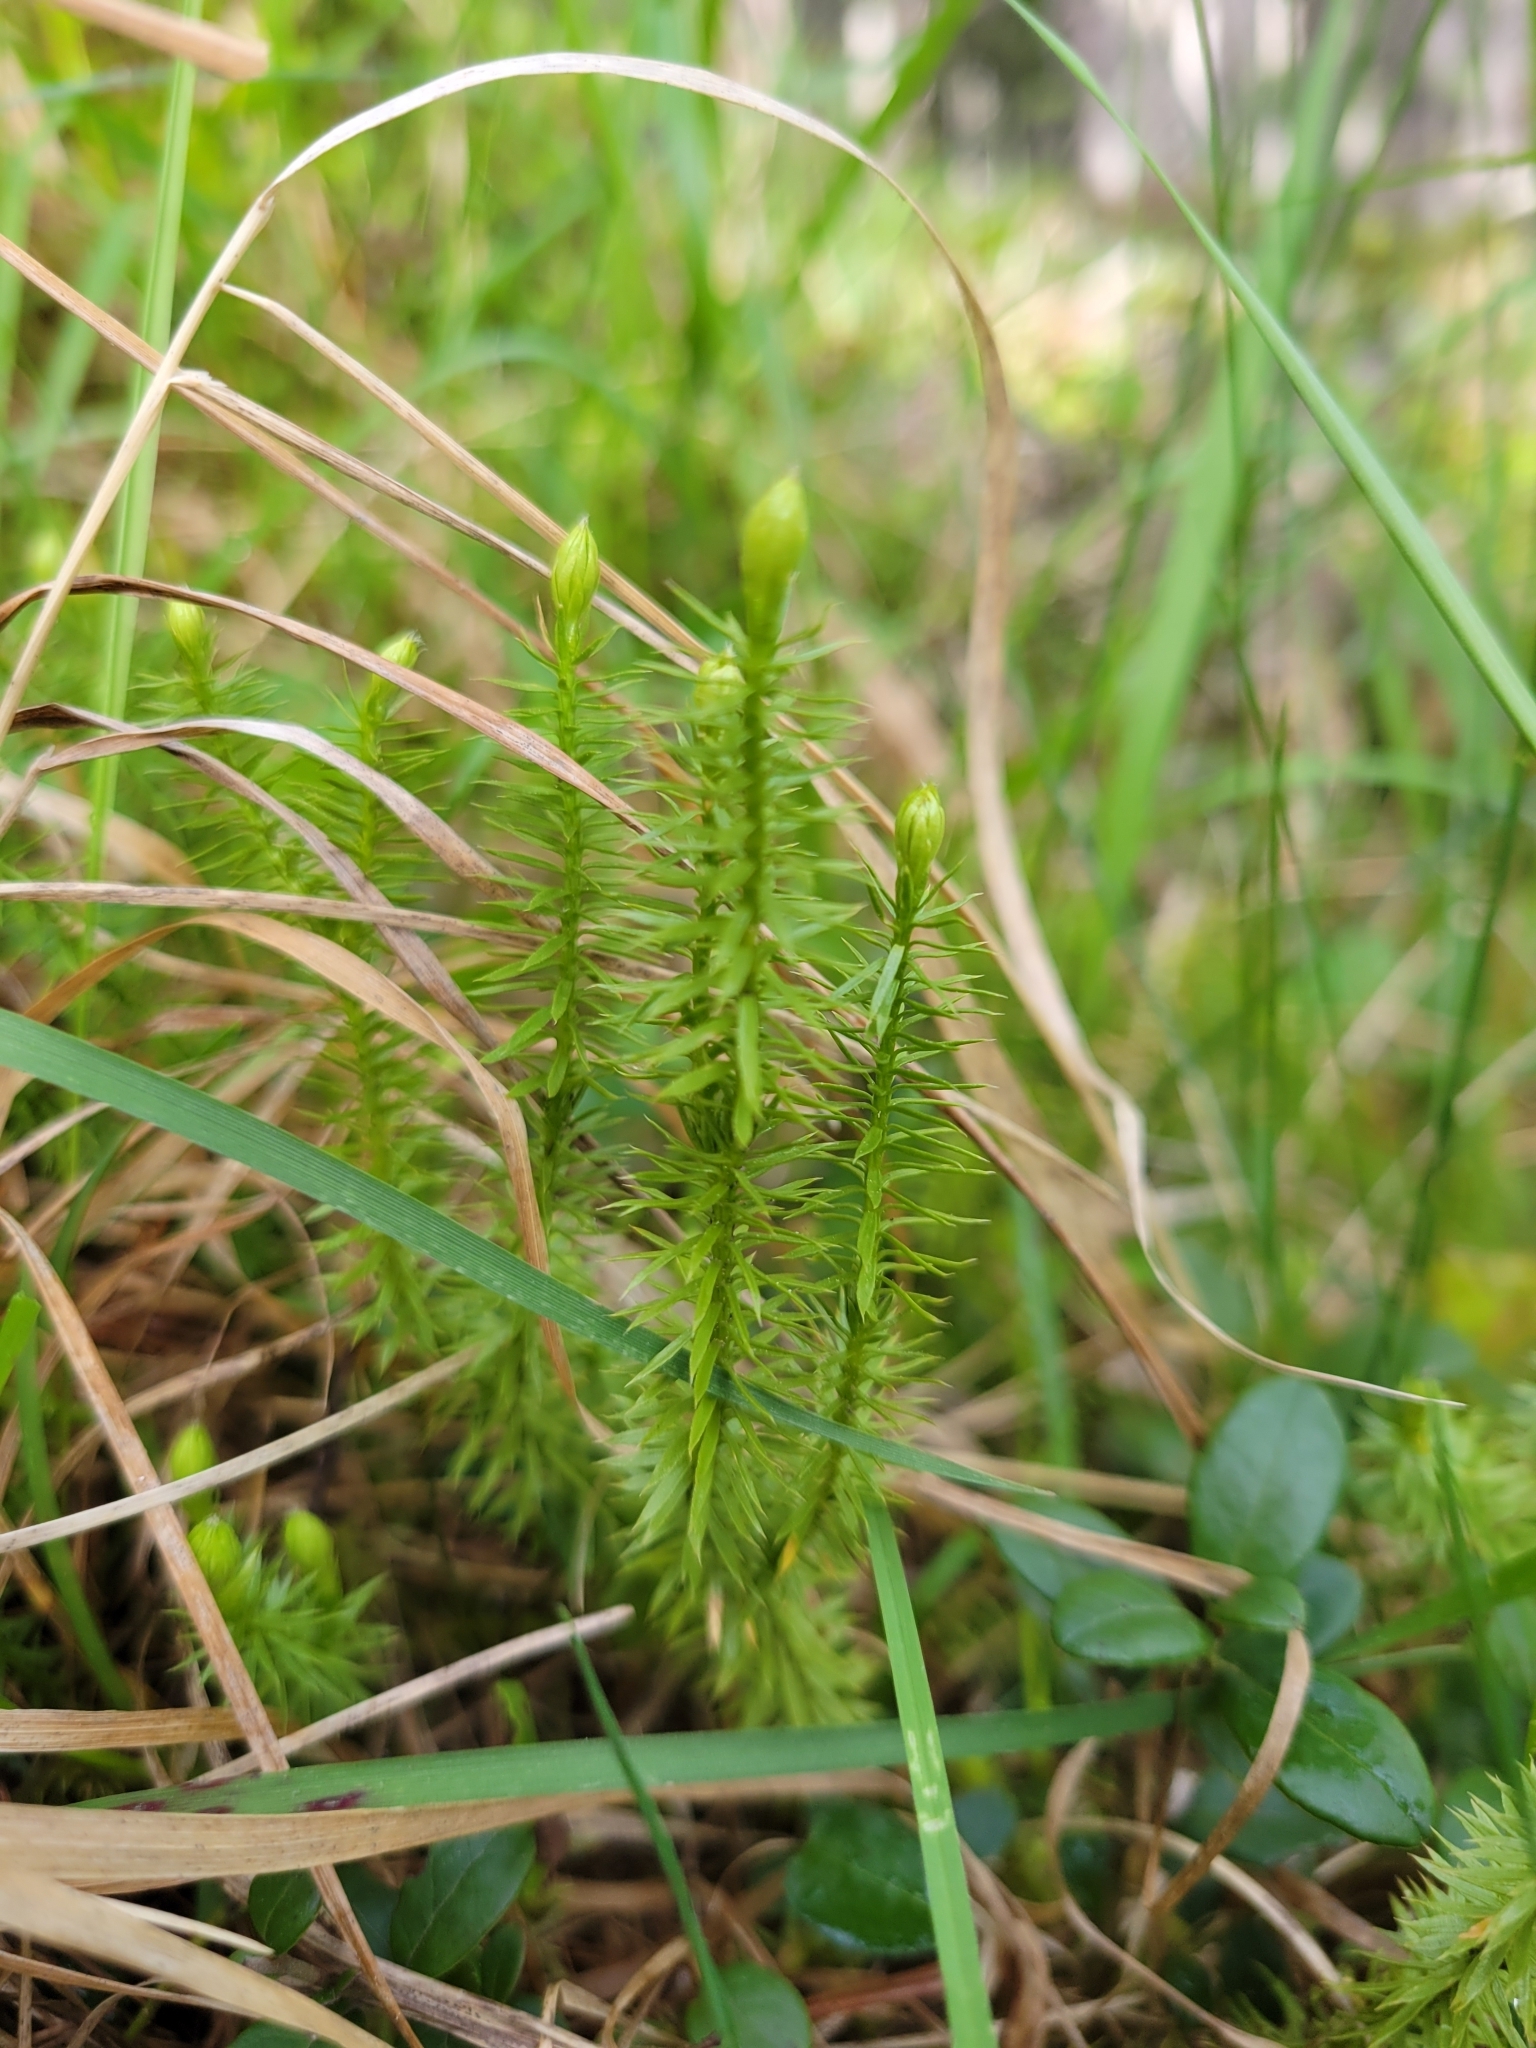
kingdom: Plantae
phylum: Tracheophyta
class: Lycopodiopsida
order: Lycopodiales
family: Lycopodiaceae
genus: Spinulum
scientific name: Spinulum annotinum
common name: Interrupted club-moss
